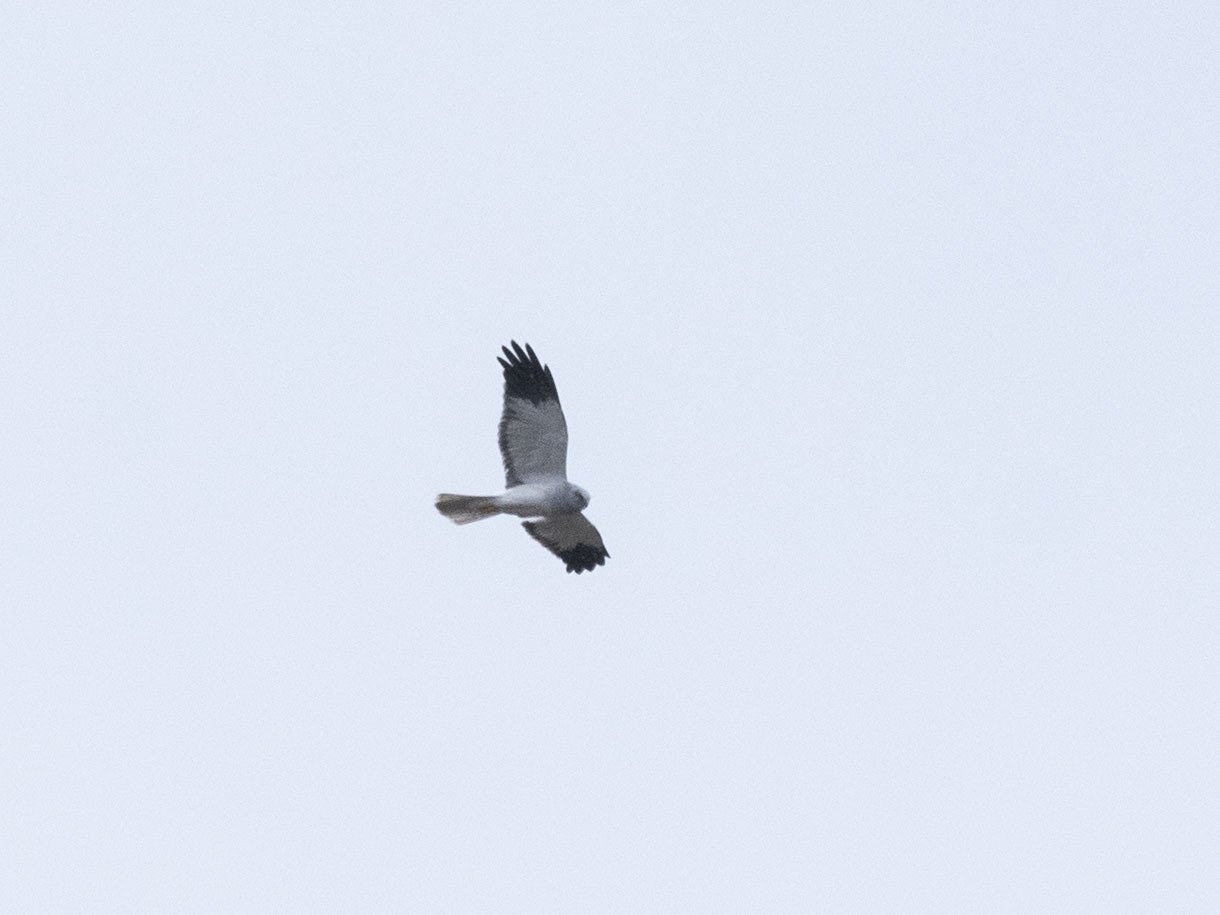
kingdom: Animalia
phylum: Chordata
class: Aves
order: Accipitriformes
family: Accipitridae
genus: Circus
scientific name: Circus cyaneus
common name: Hen harrier
